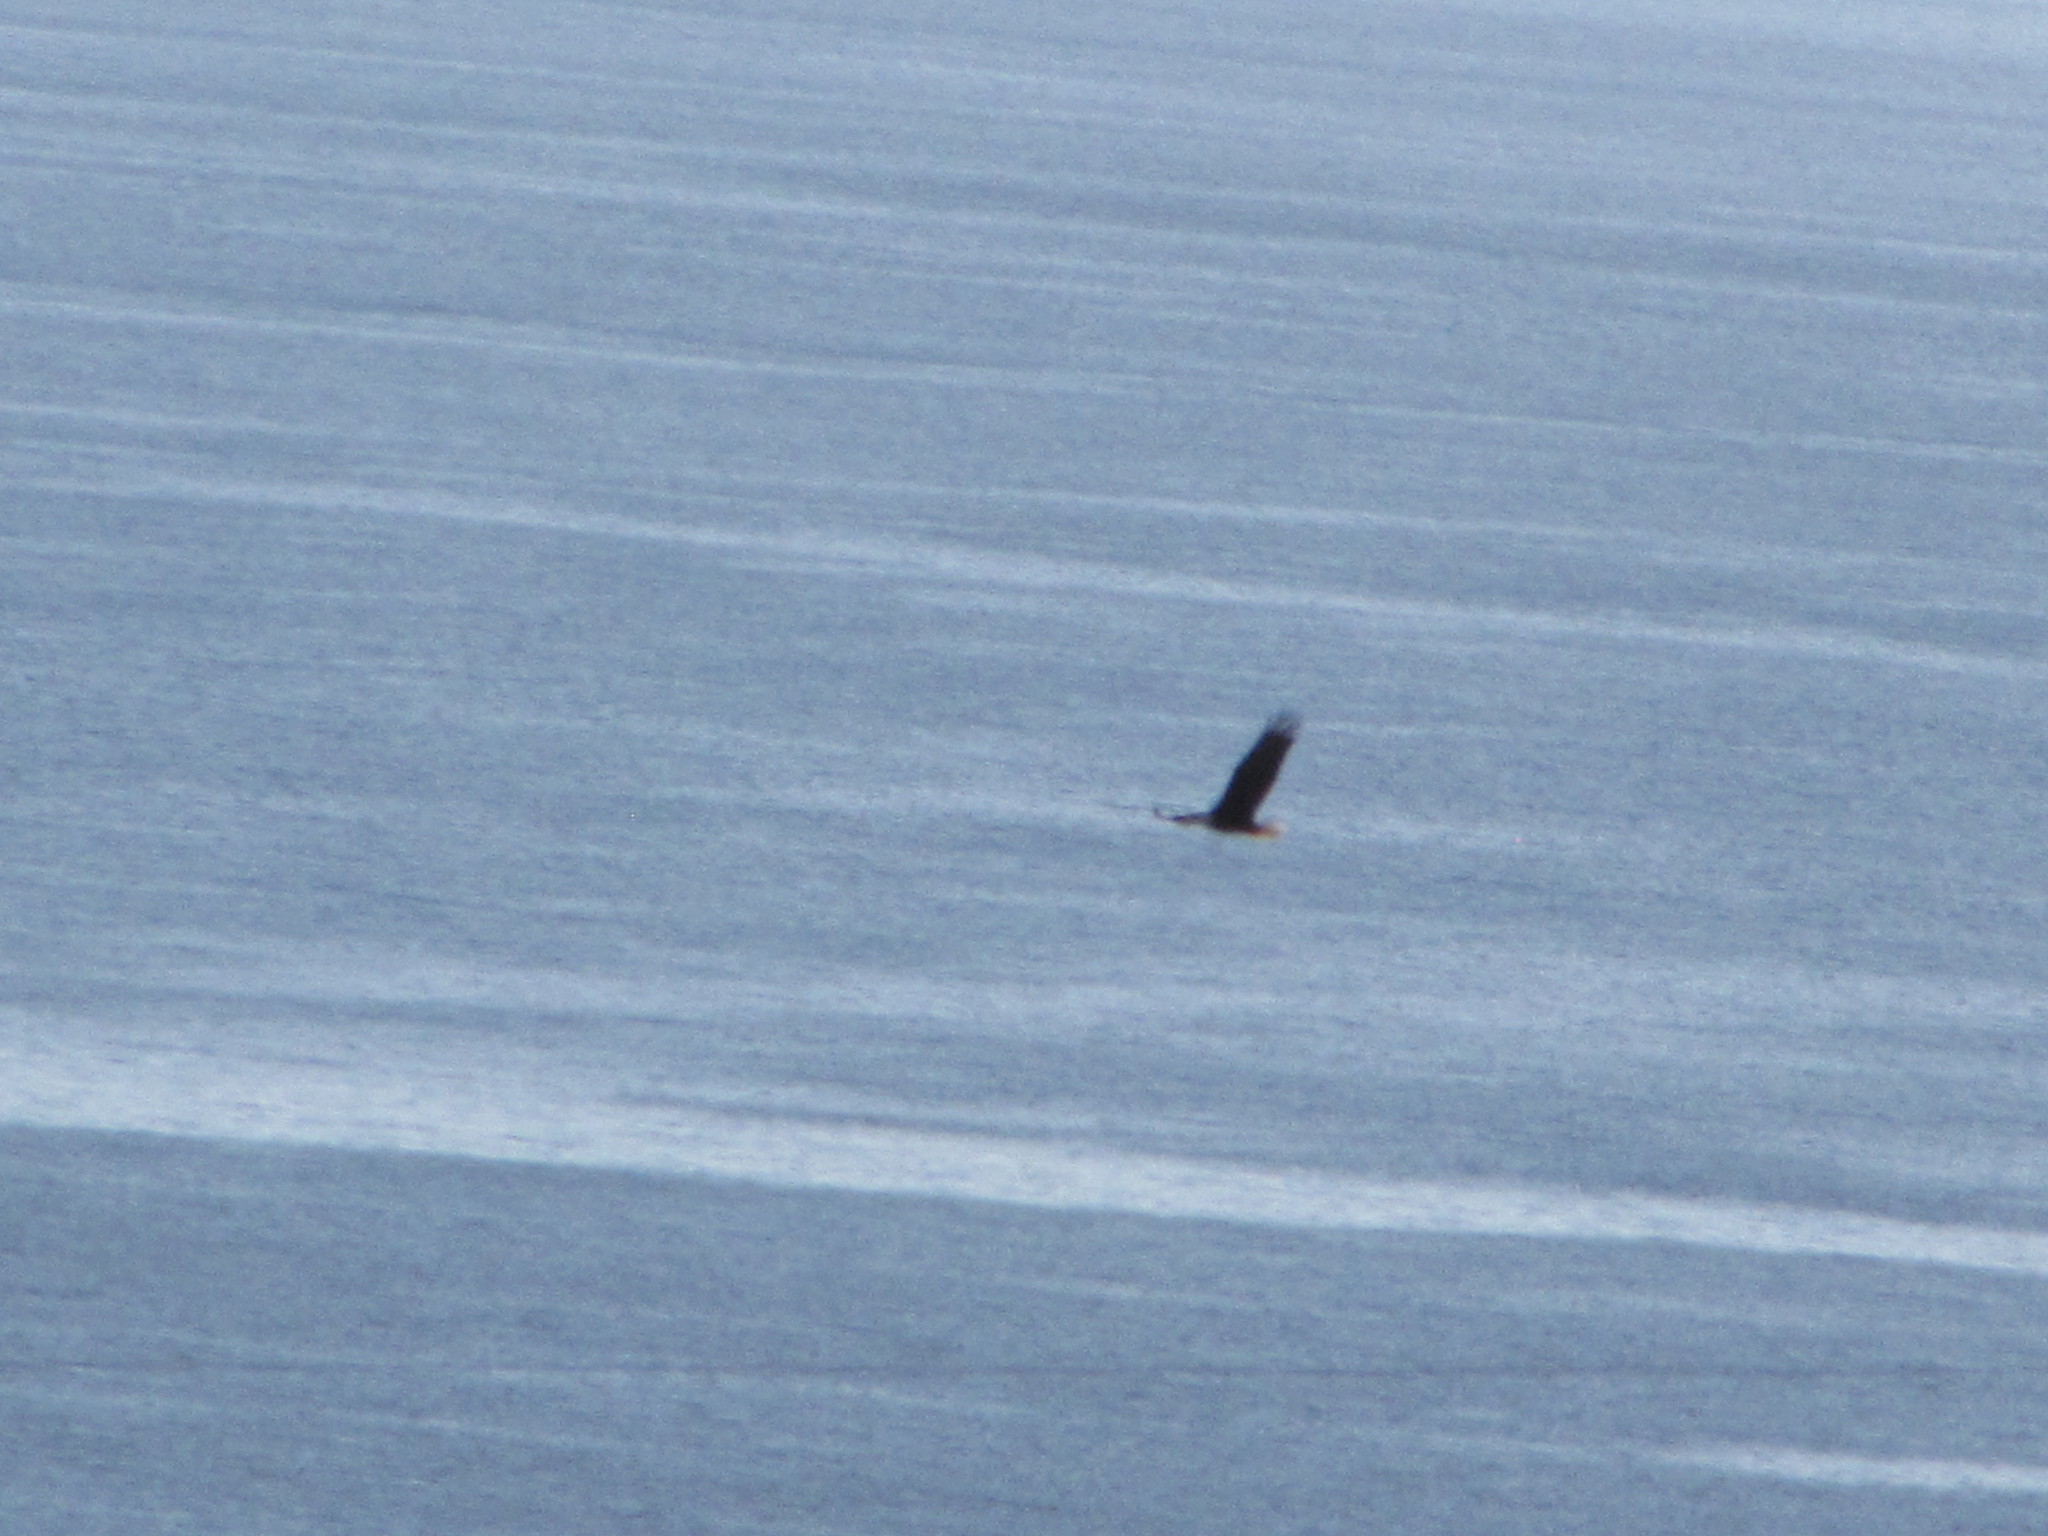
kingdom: Animalia
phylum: Chordata
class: Aves
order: Accipitriformes
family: Accipitridae
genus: Haliaeetus
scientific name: Haliaeetus leucocephalus
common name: Bald eagle
